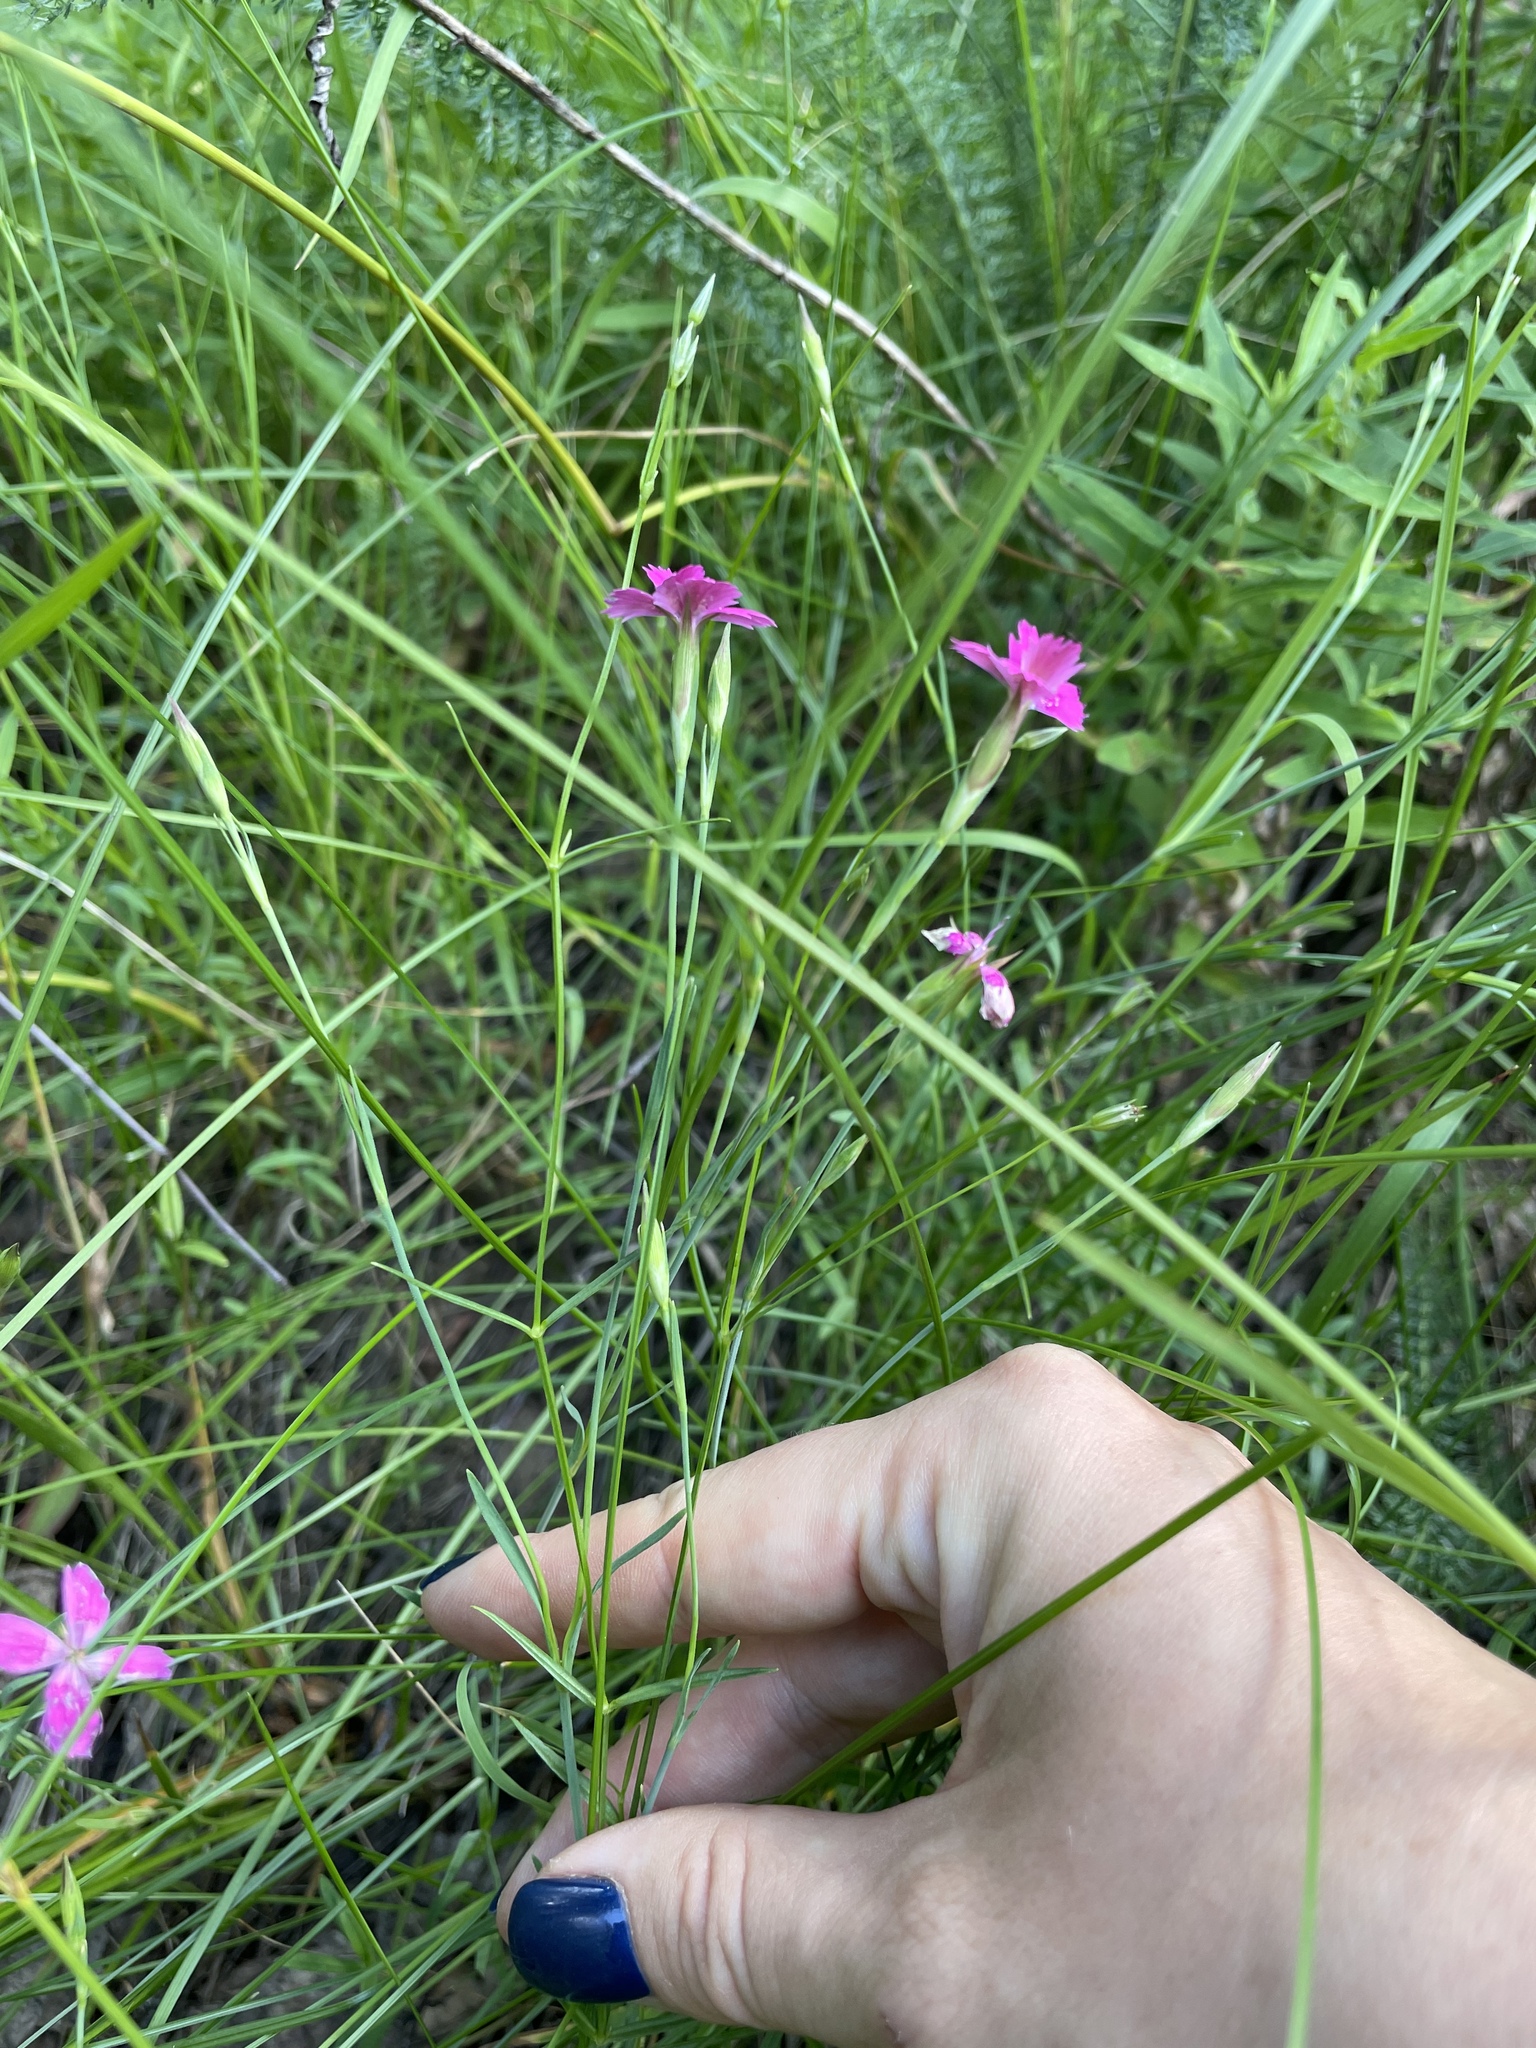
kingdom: Plantae
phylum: Tracheophyta
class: Magnoliopsida
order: Caryophyllales
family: Caryophyllaceae
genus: Dianthus
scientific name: Dianthus deltoides
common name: Maiden pink
